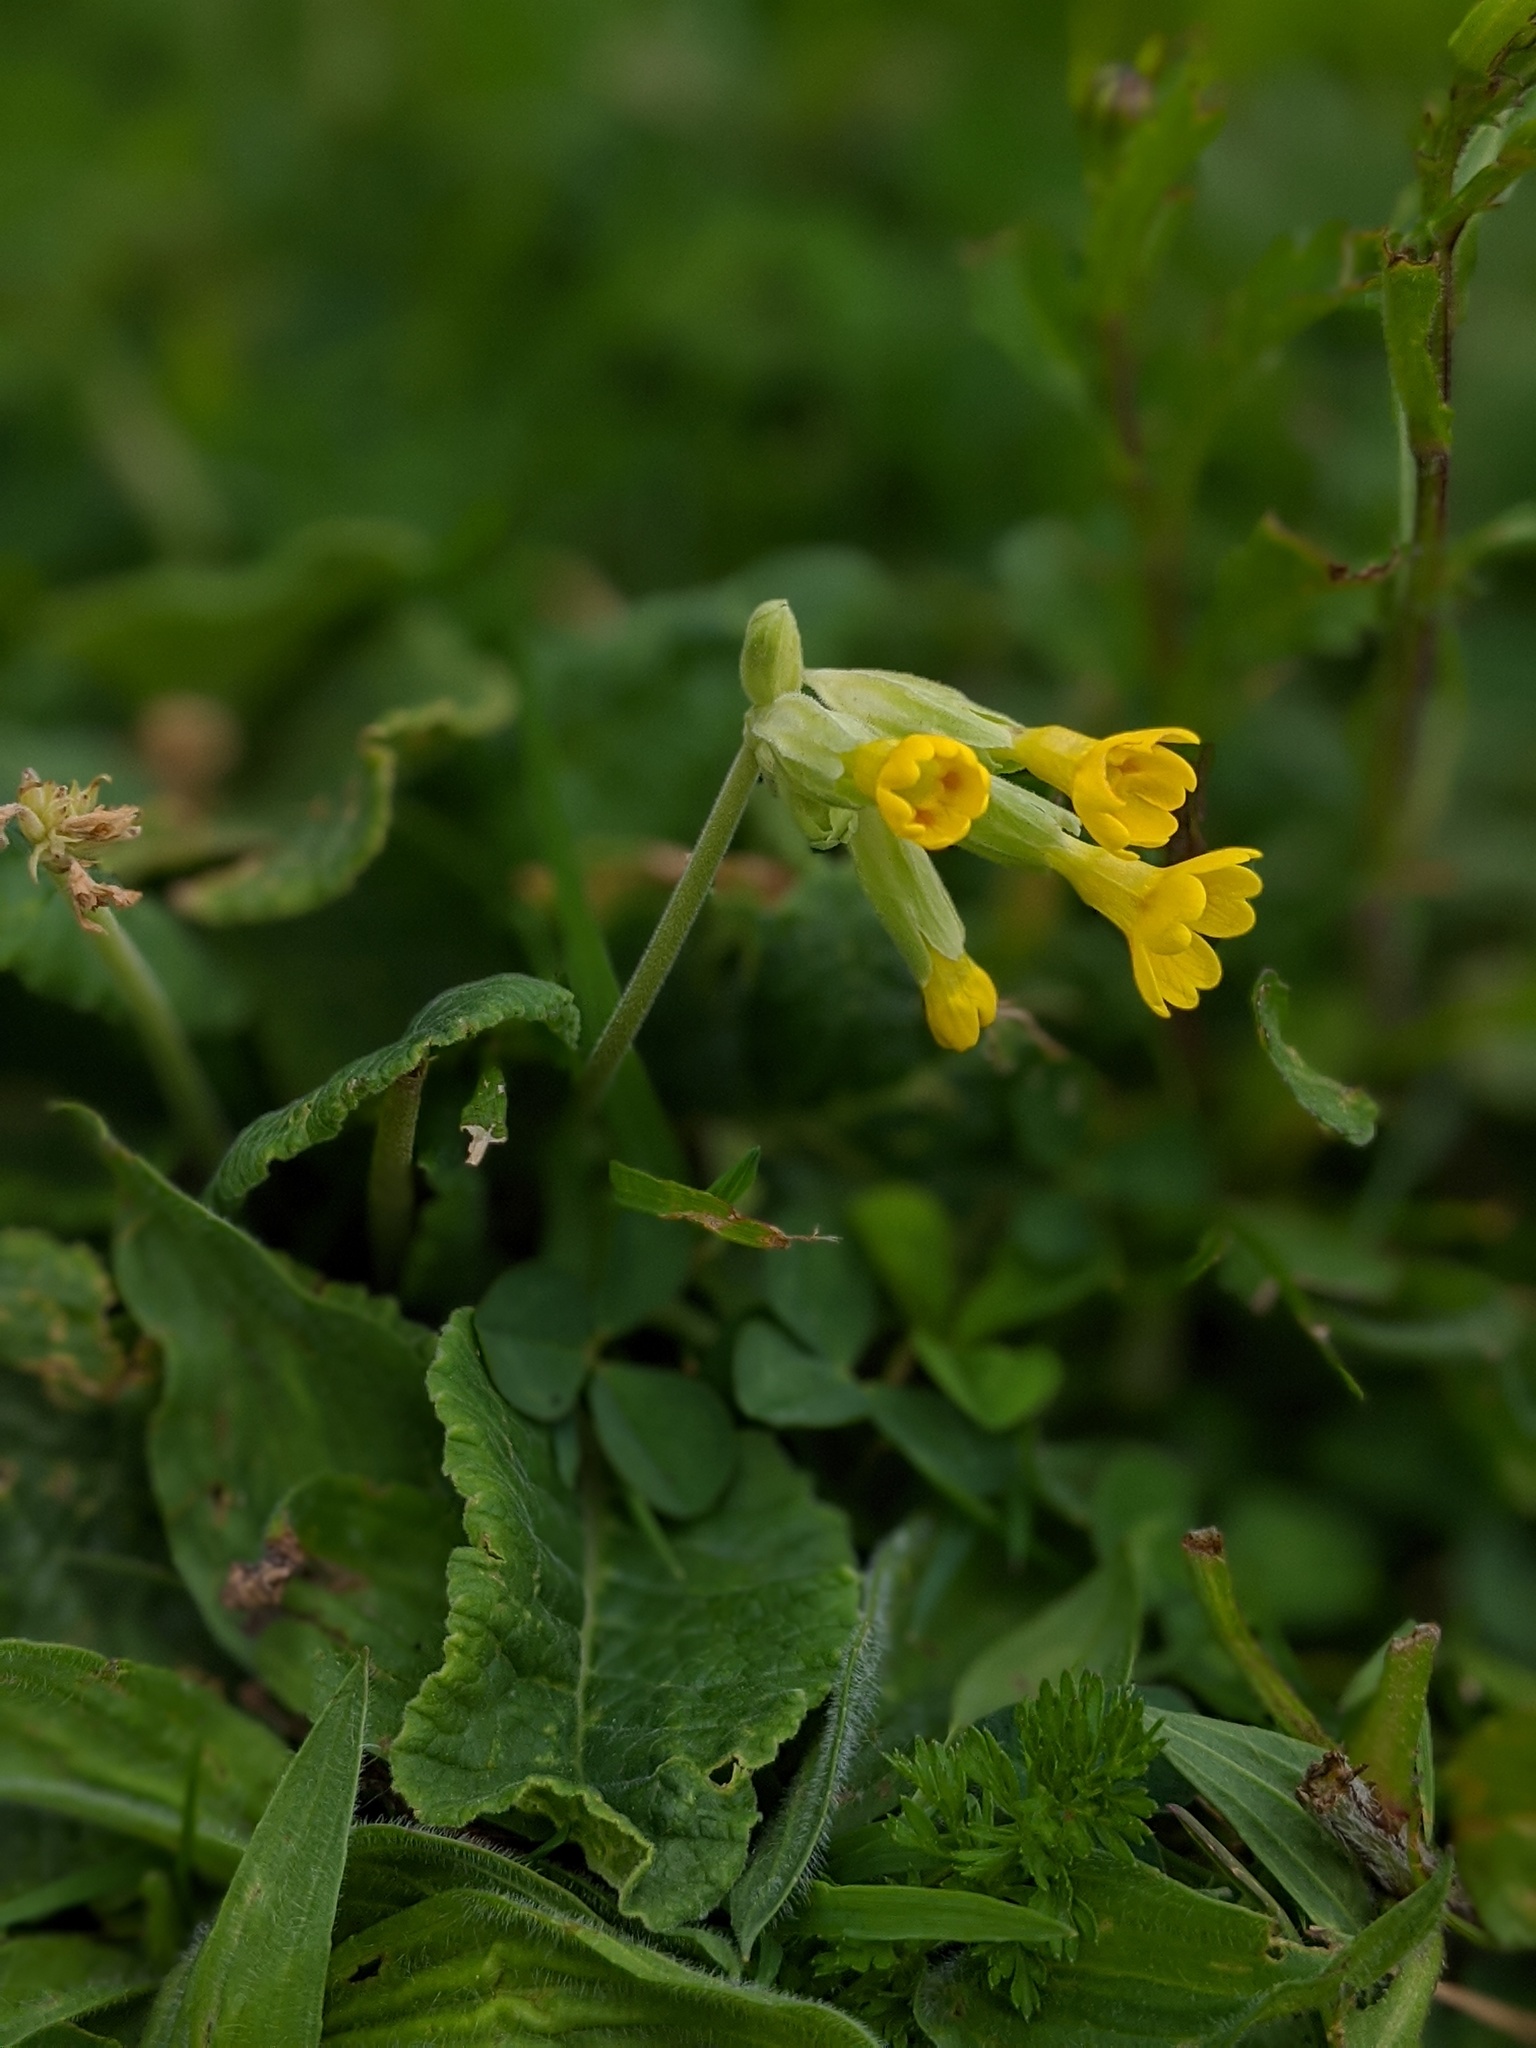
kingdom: Plantae
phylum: Tracheophyta
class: Magnoliopsida
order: Ericales
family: Primulaceae
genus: Primula
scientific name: Primula veris
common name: Cowslip
